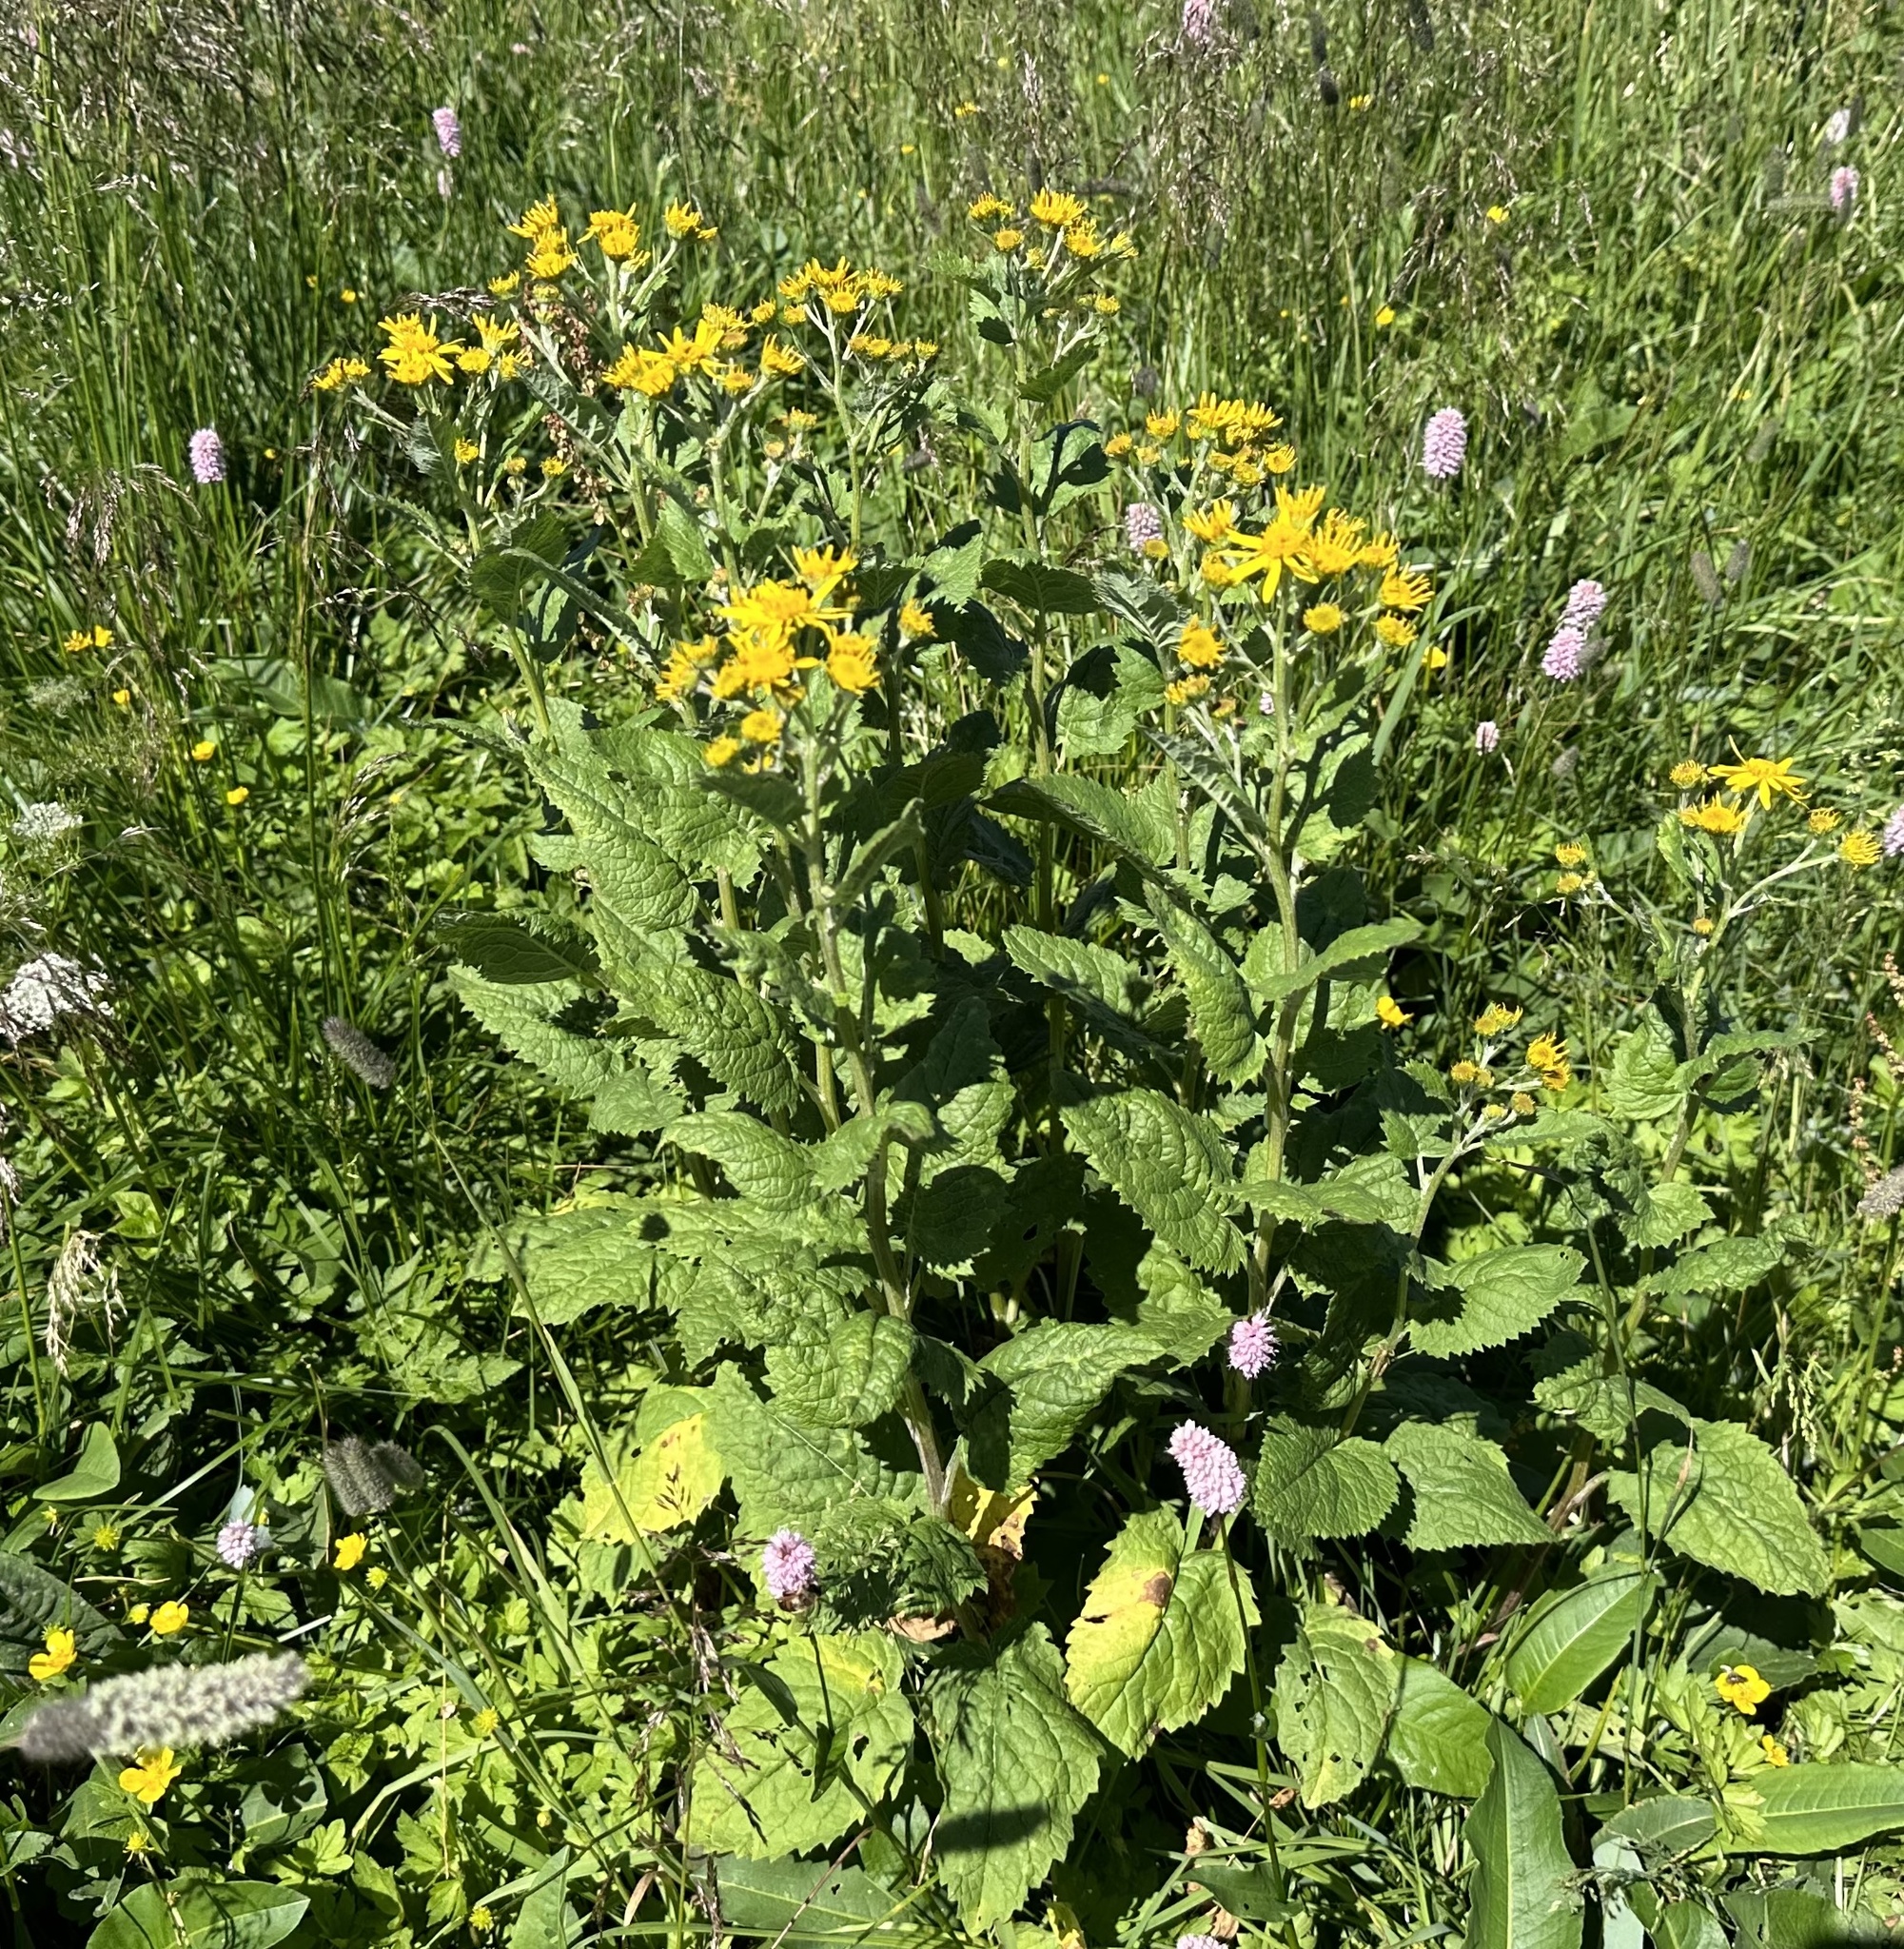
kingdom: Plantae
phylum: Tracheophyta
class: Magnoliopsida
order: Asterales
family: Asteraceae
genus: Jacobaea
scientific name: Jacobaea alpina
